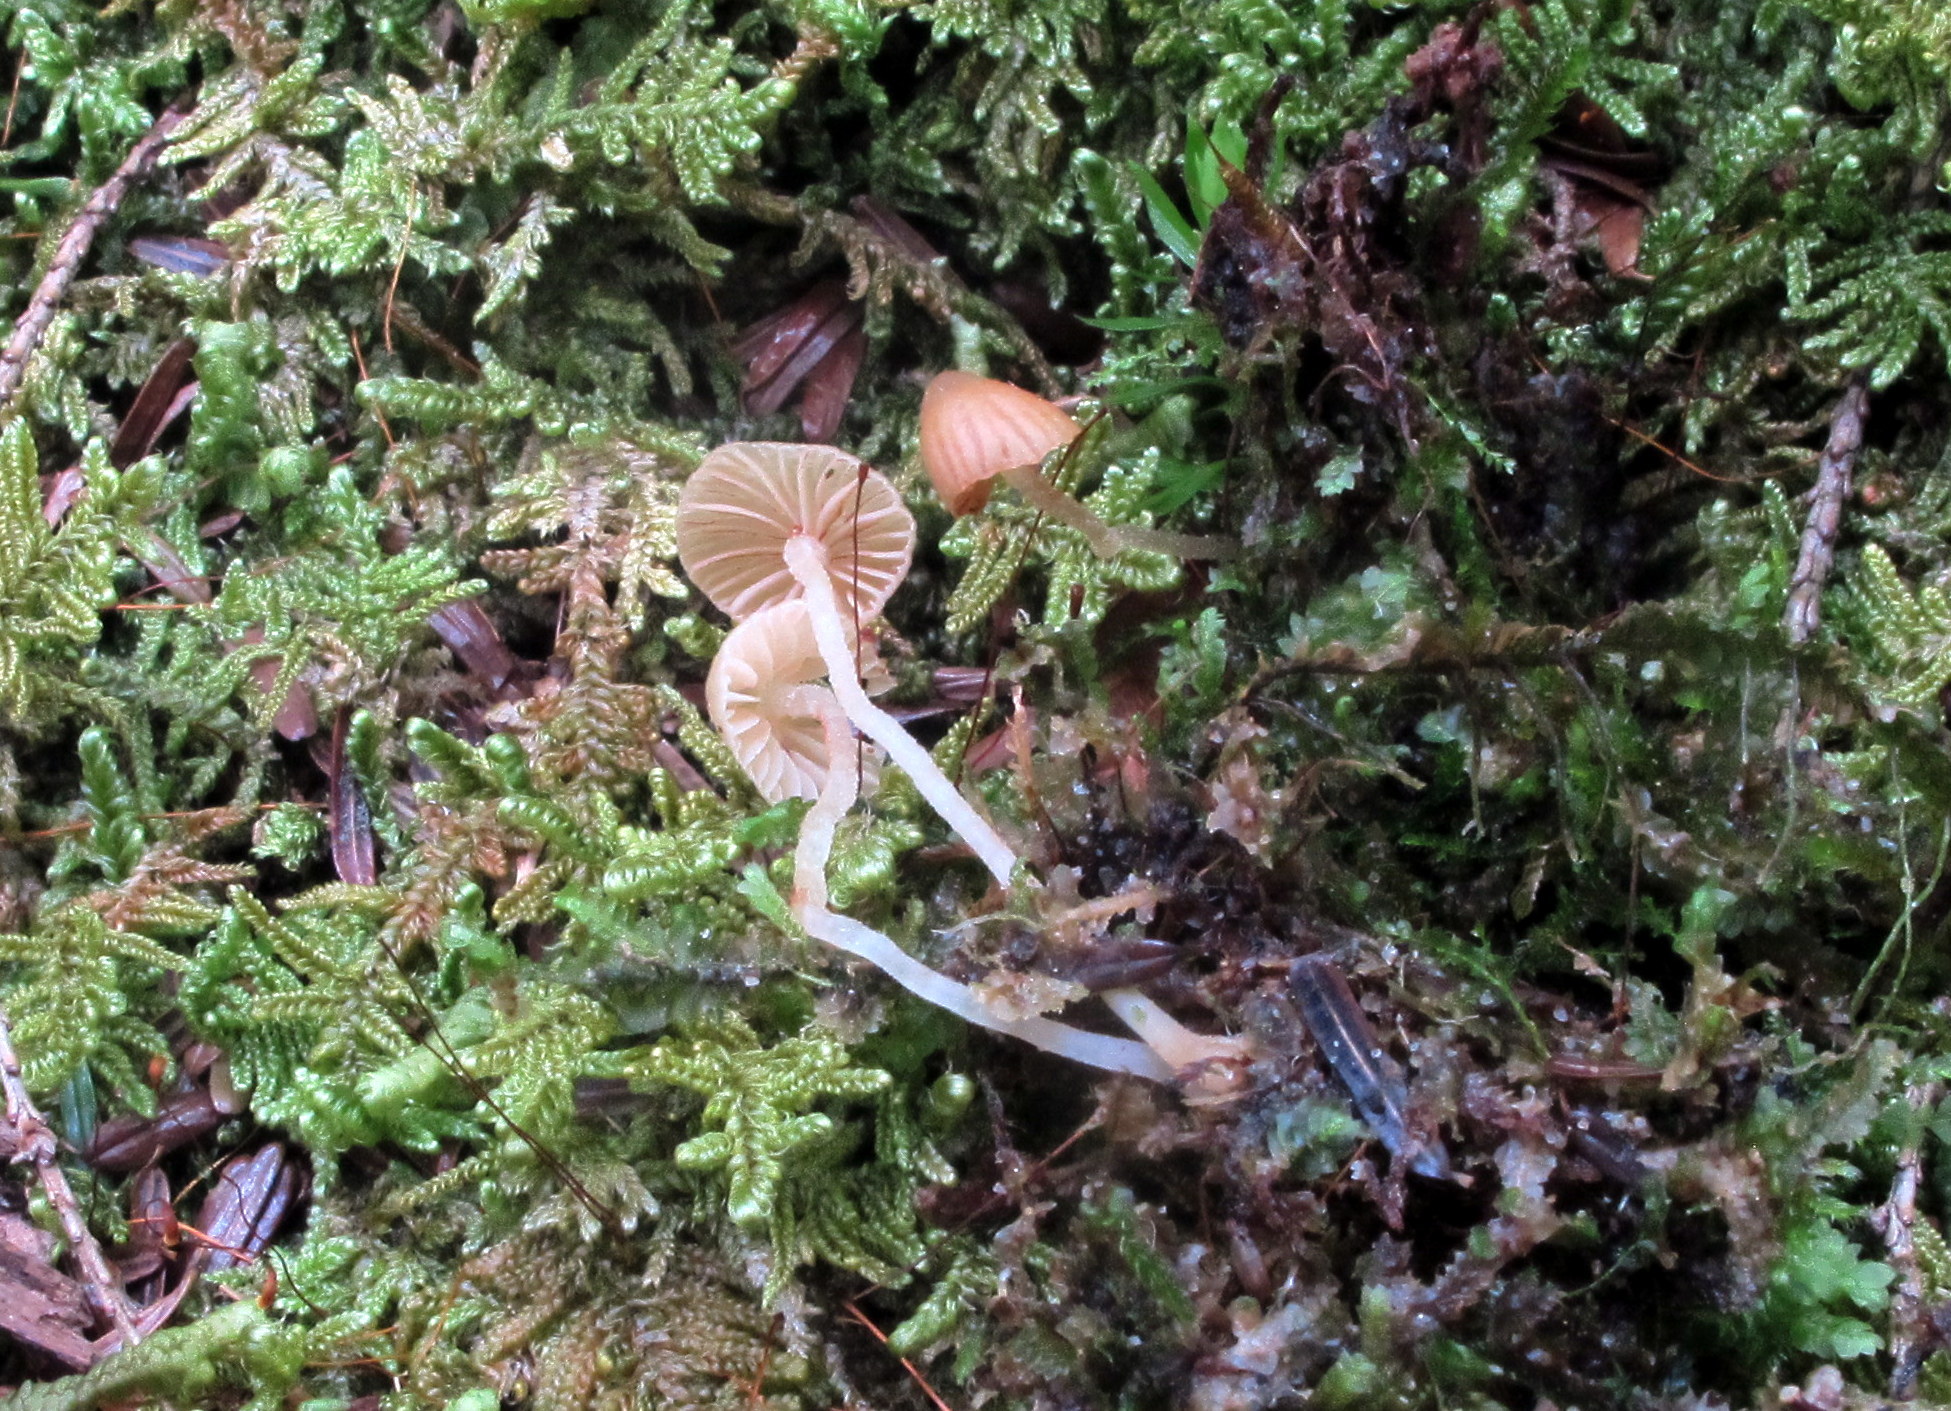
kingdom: Fungi
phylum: Basidiomycota
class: Agaricomycetes
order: Agaricales
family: Mycenaceae
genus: Mycena
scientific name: Mycena corticola
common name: Bark mycena
